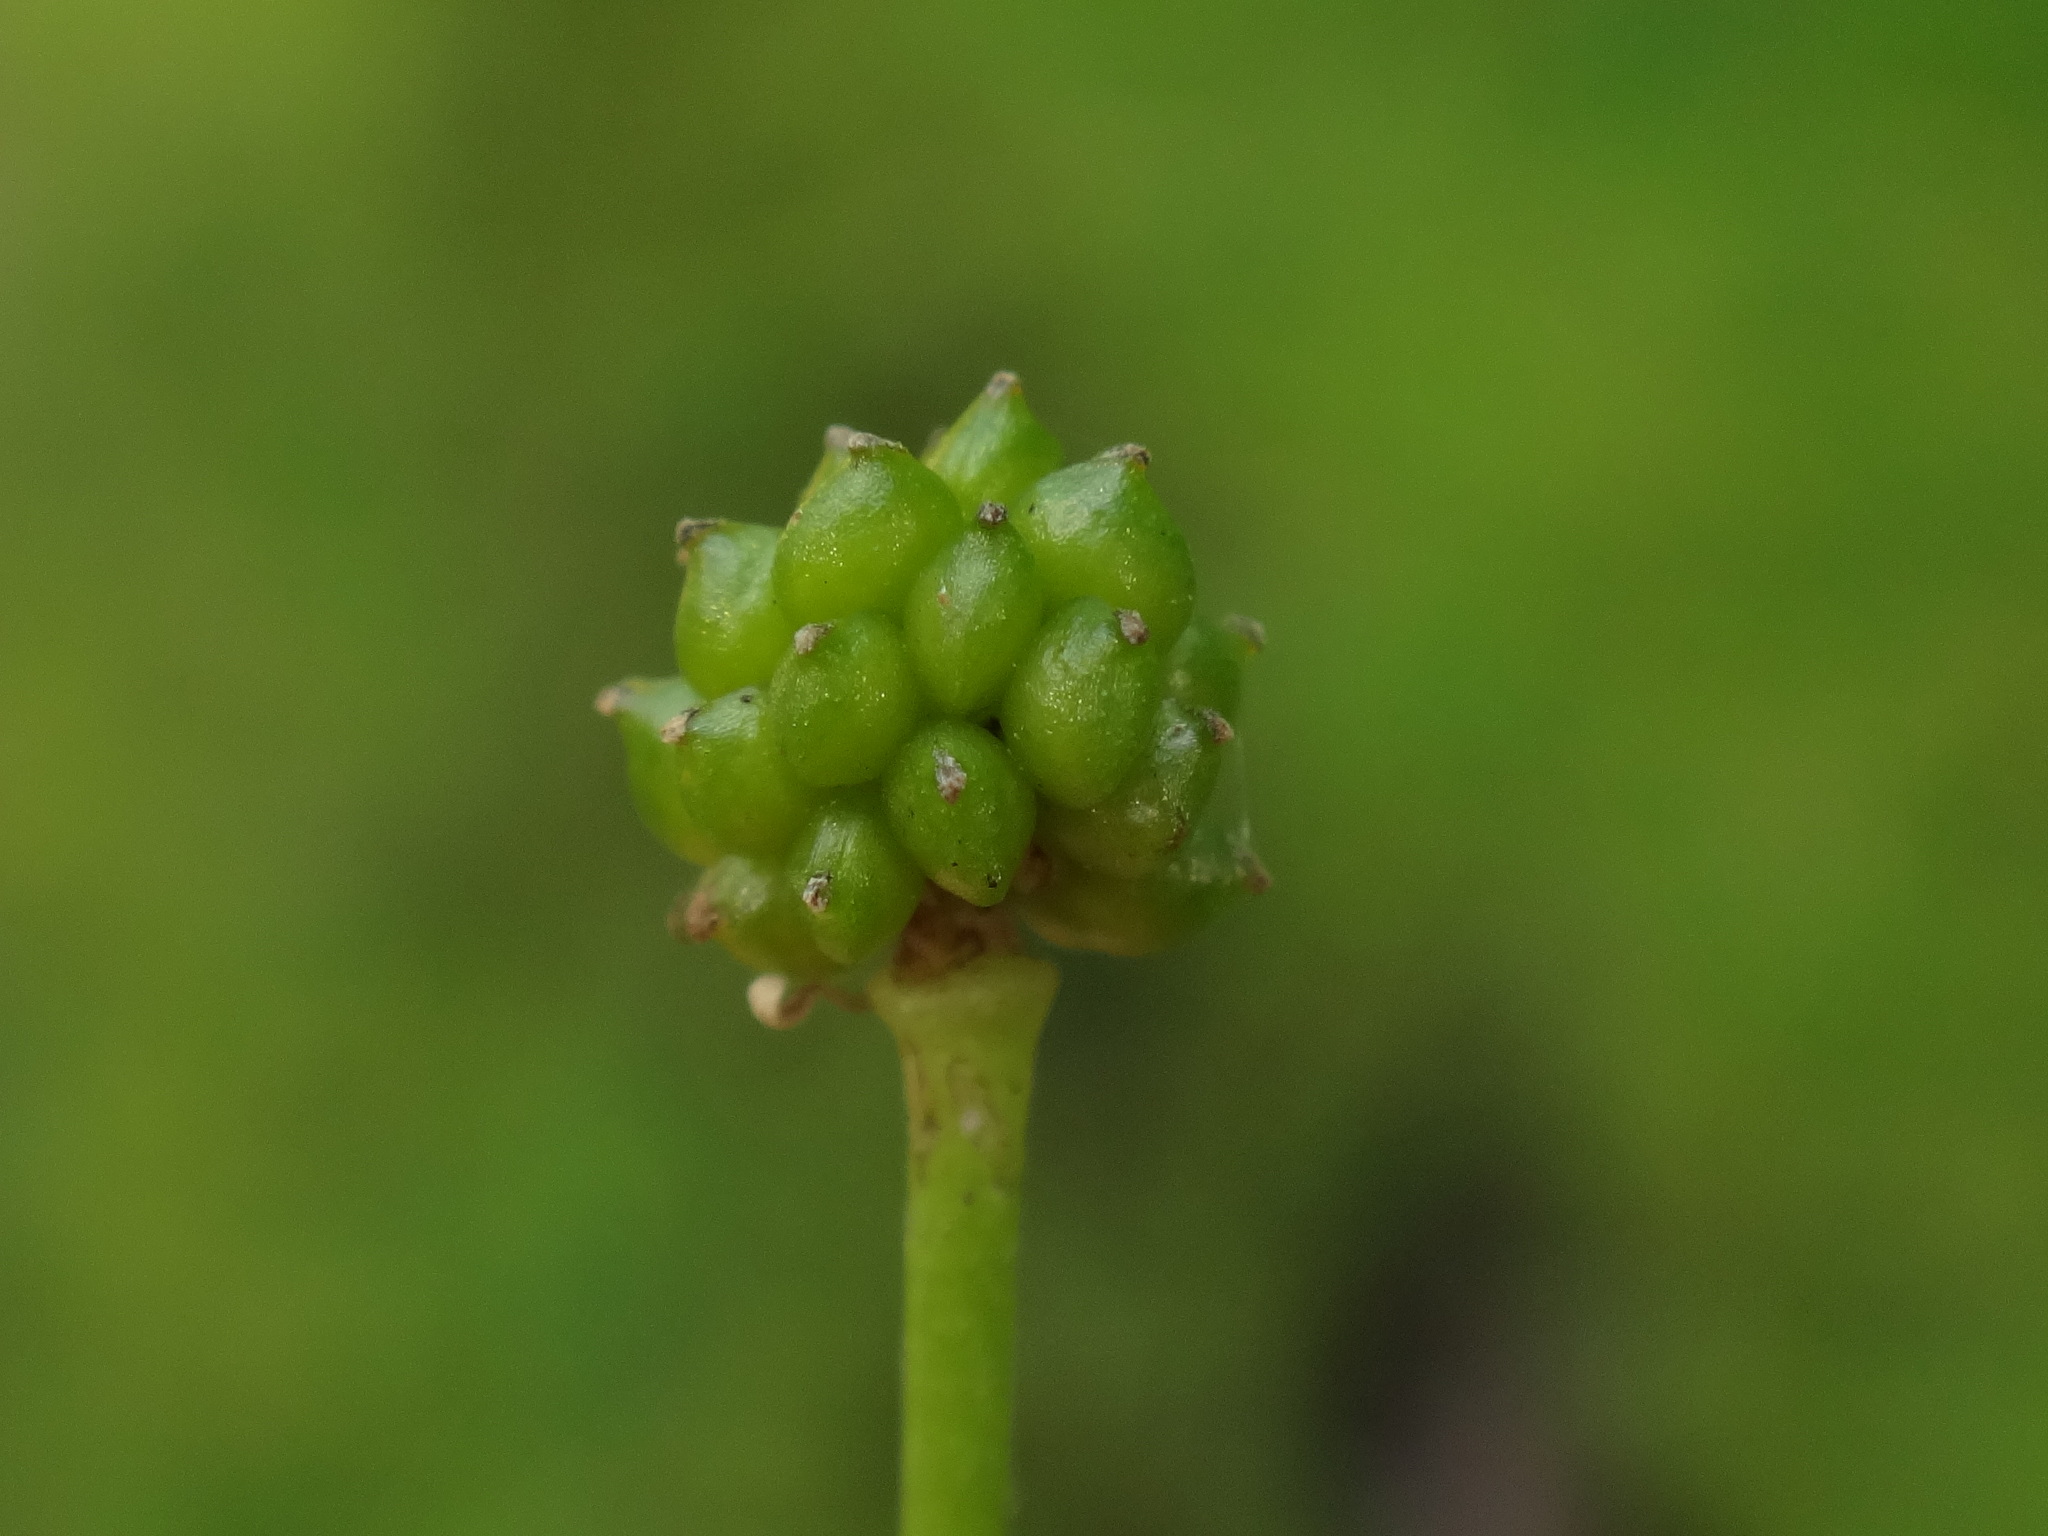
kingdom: Plantae
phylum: Tracheophyta
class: Magnoliopsida
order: Ranunculales
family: Ranunculaceae
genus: Ranunculus
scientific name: Ranunculus flammula
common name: Lesser spearwort
